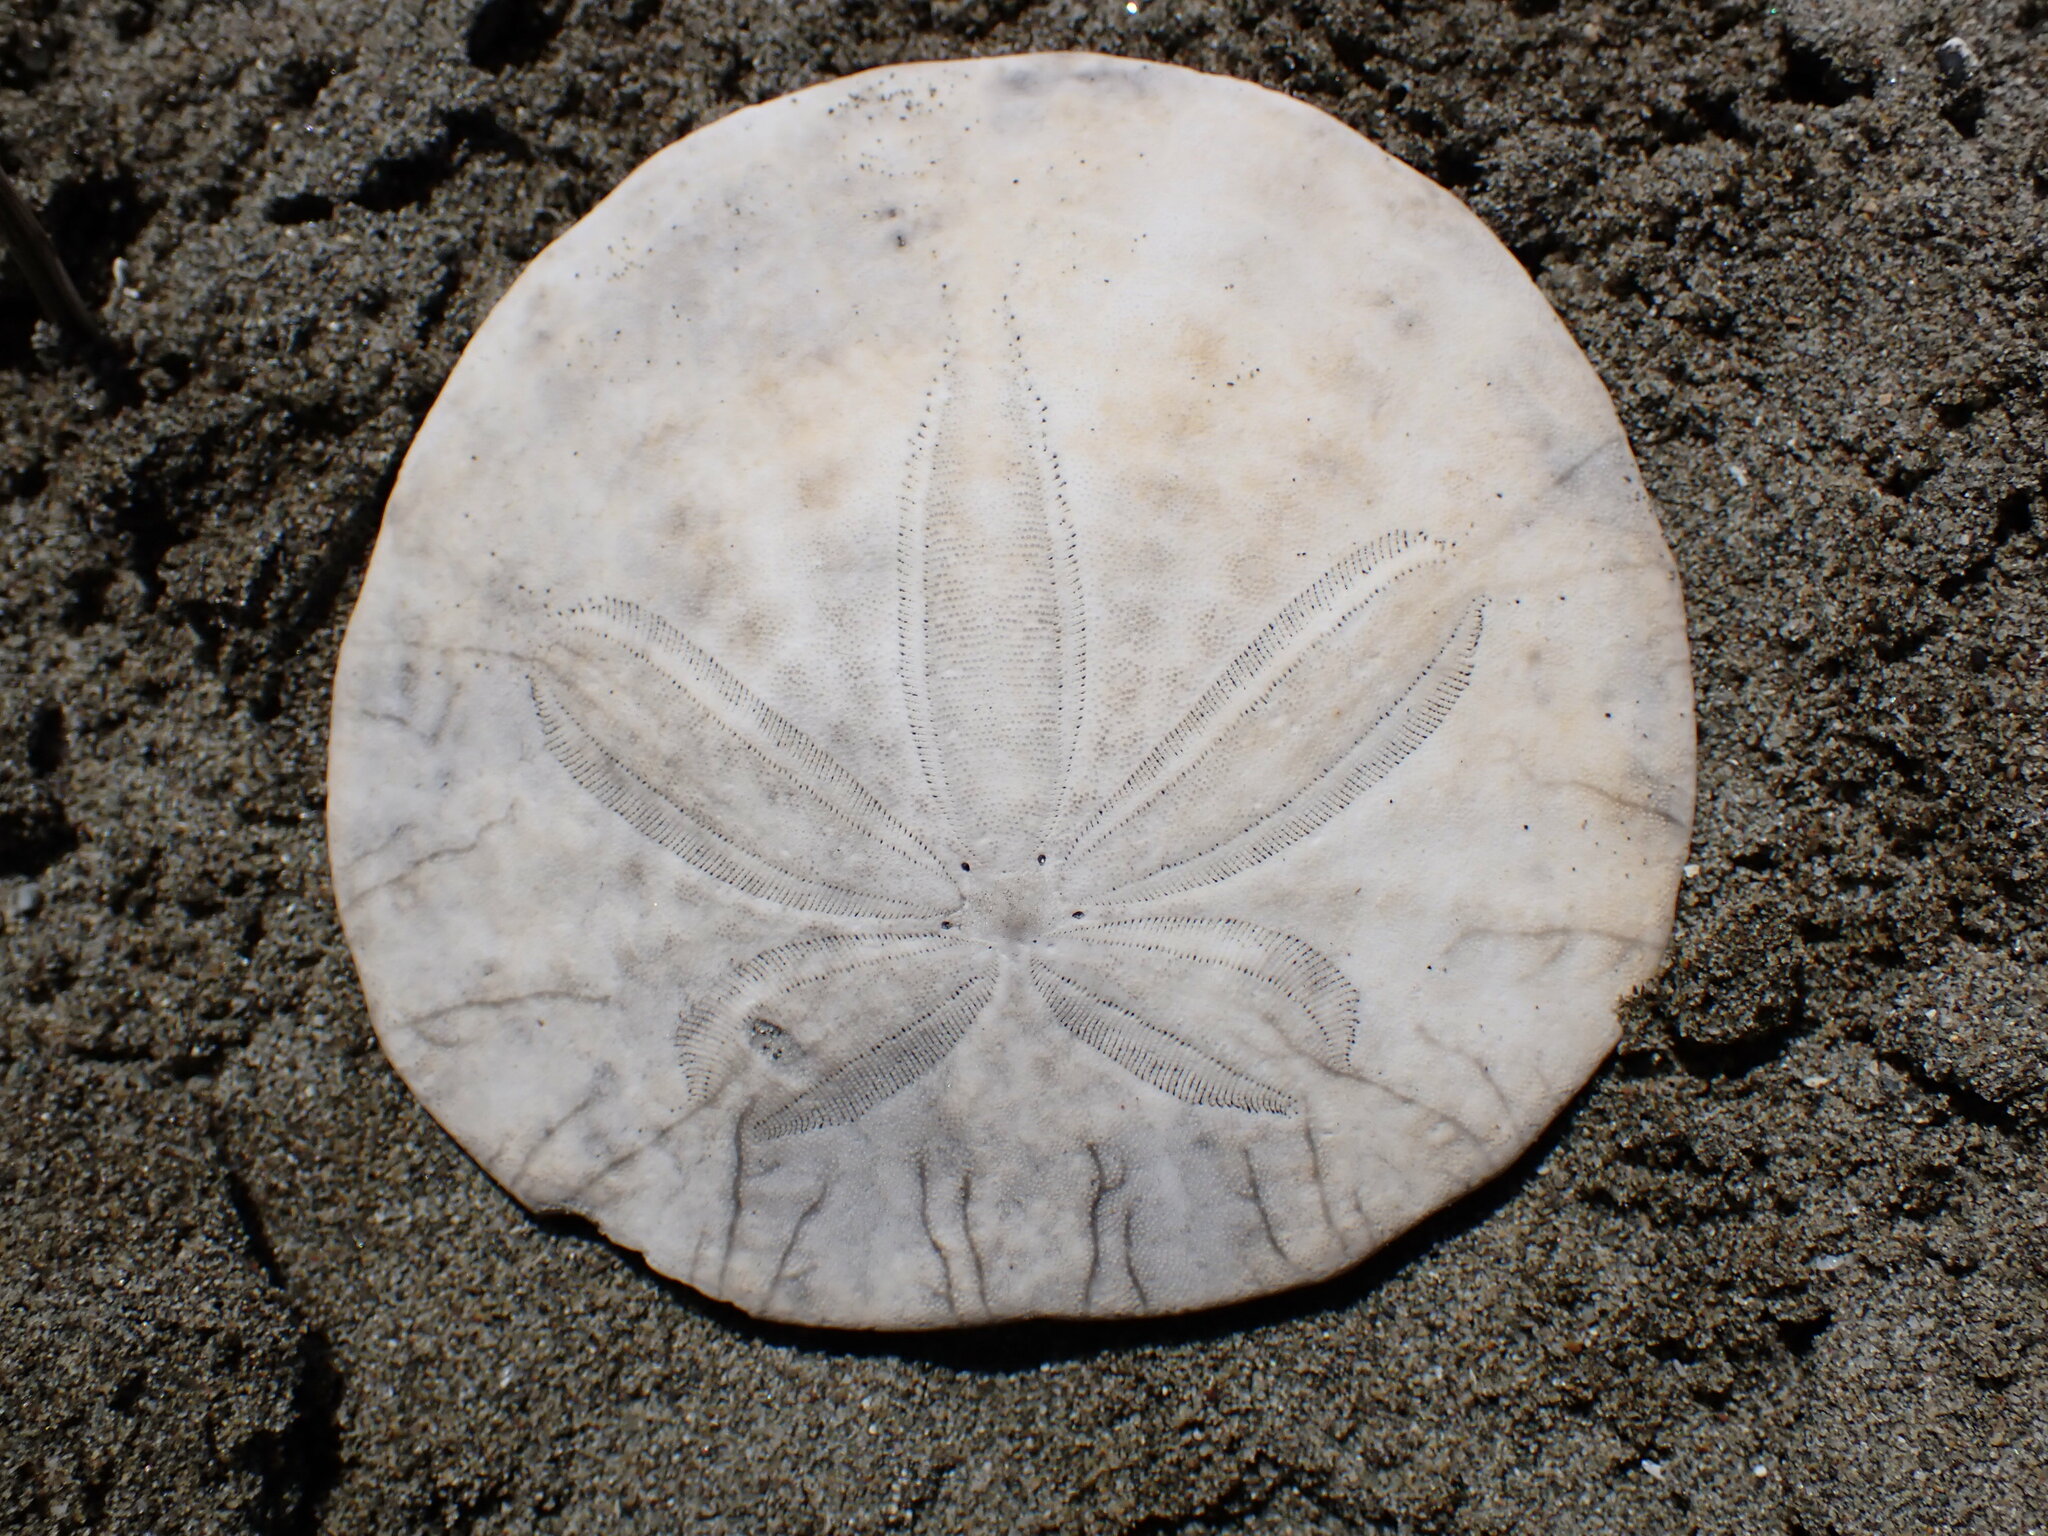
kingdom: Animalia
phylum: Echinodermata
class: Echinoidea
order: Echinolampadacea
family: Dendrasteridae
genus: Dendraster
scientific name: Dendraster excentricus
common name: Eccentric sand dollar sea urchin
